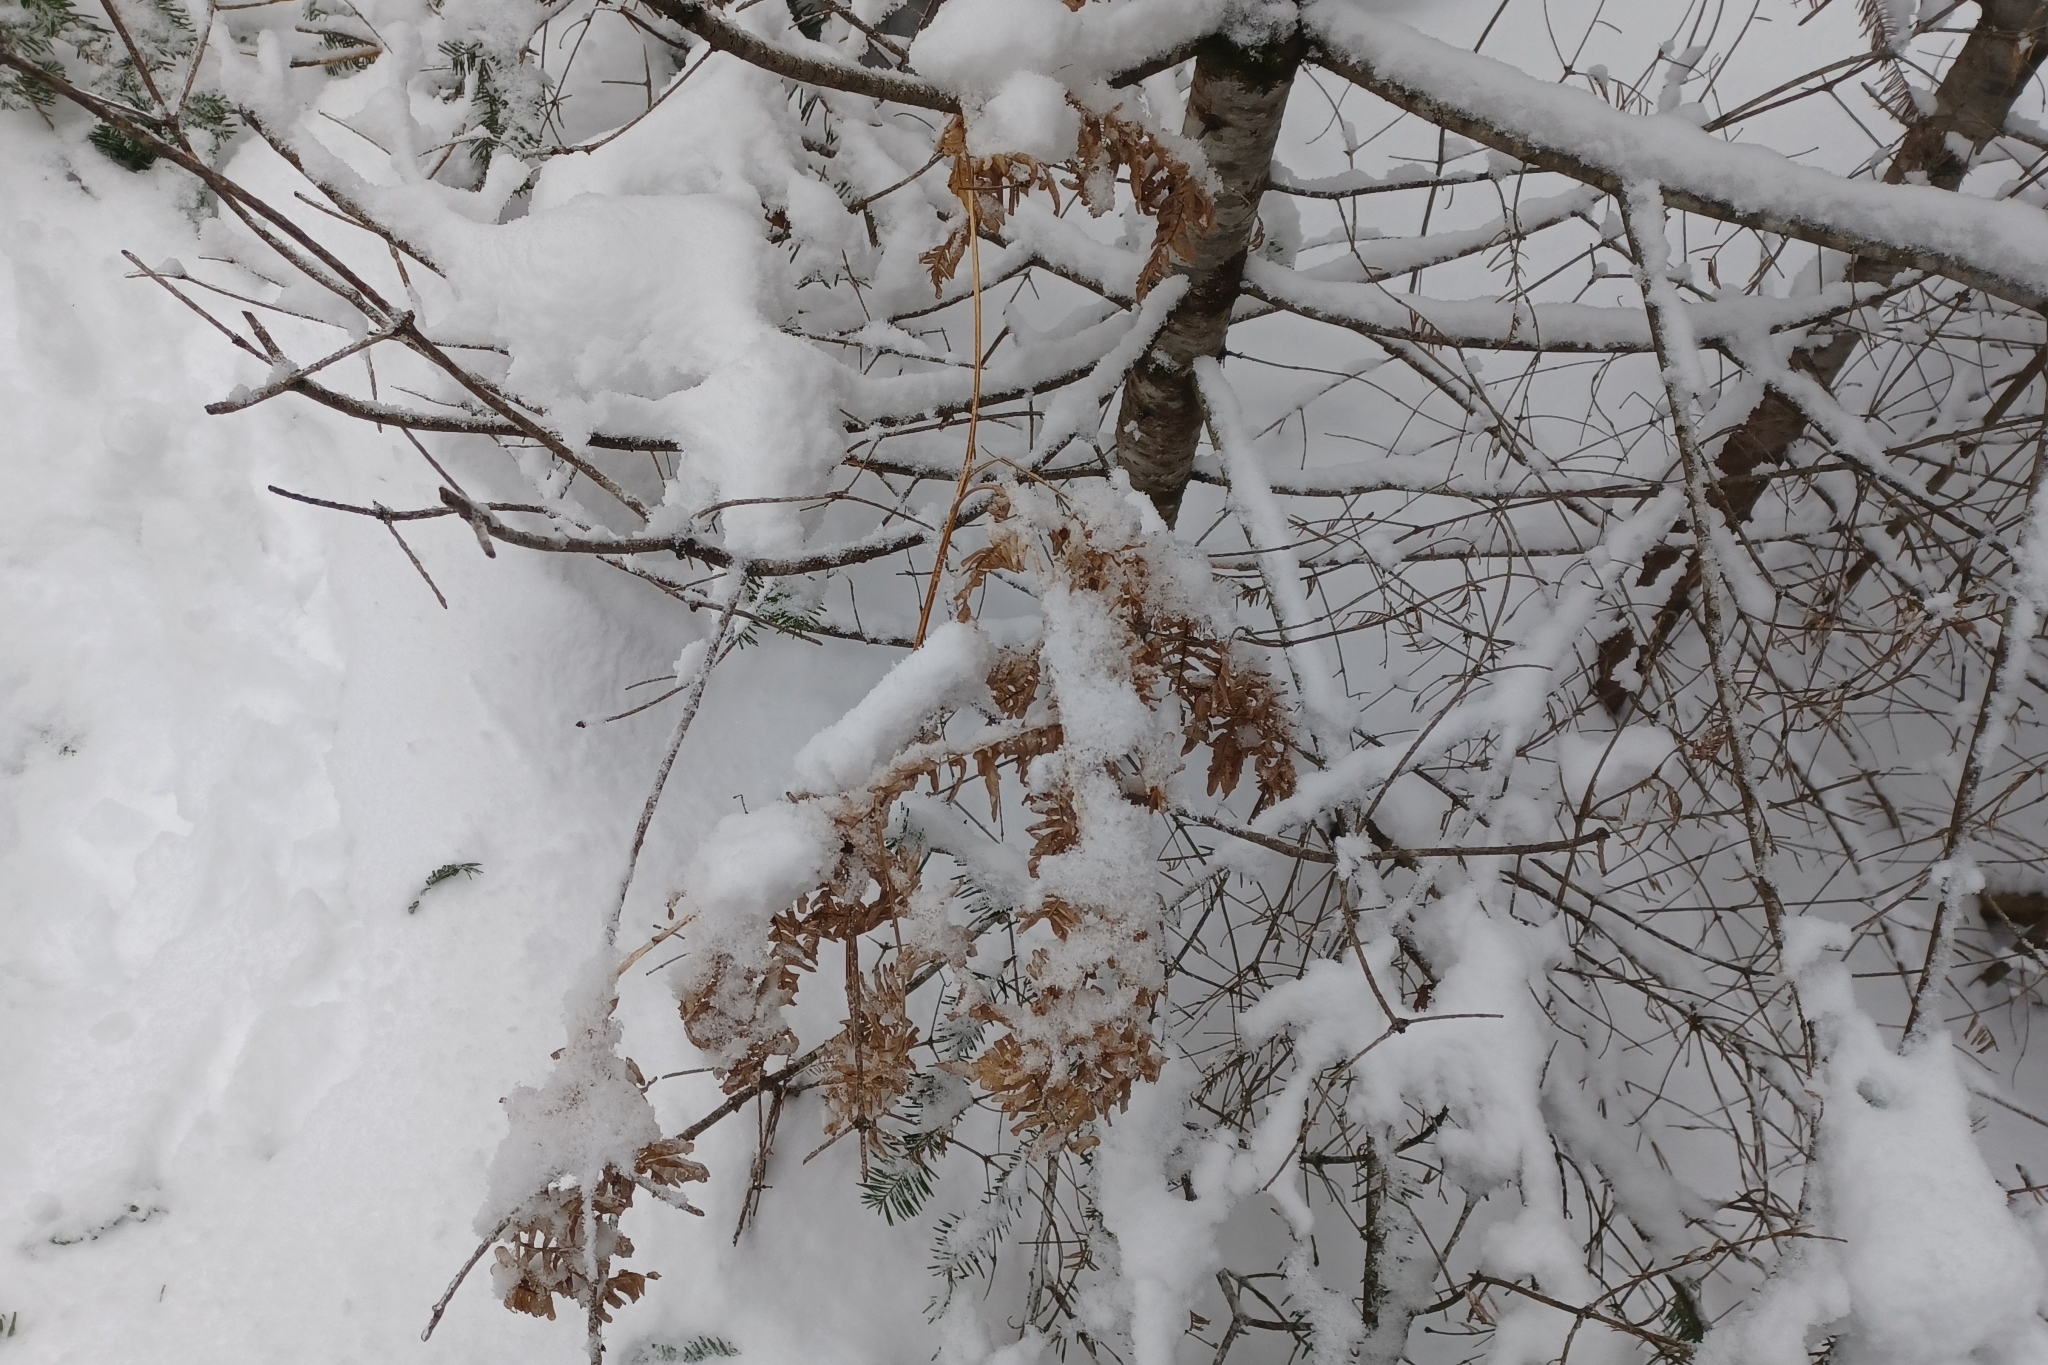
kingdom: Plantae
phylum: Tracheophyta
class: Polypodiopsida
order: Polypodiales
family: Dennstaedtiaceae
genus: Pteridium
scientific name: Pteridium aquilinum
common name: Bracken
